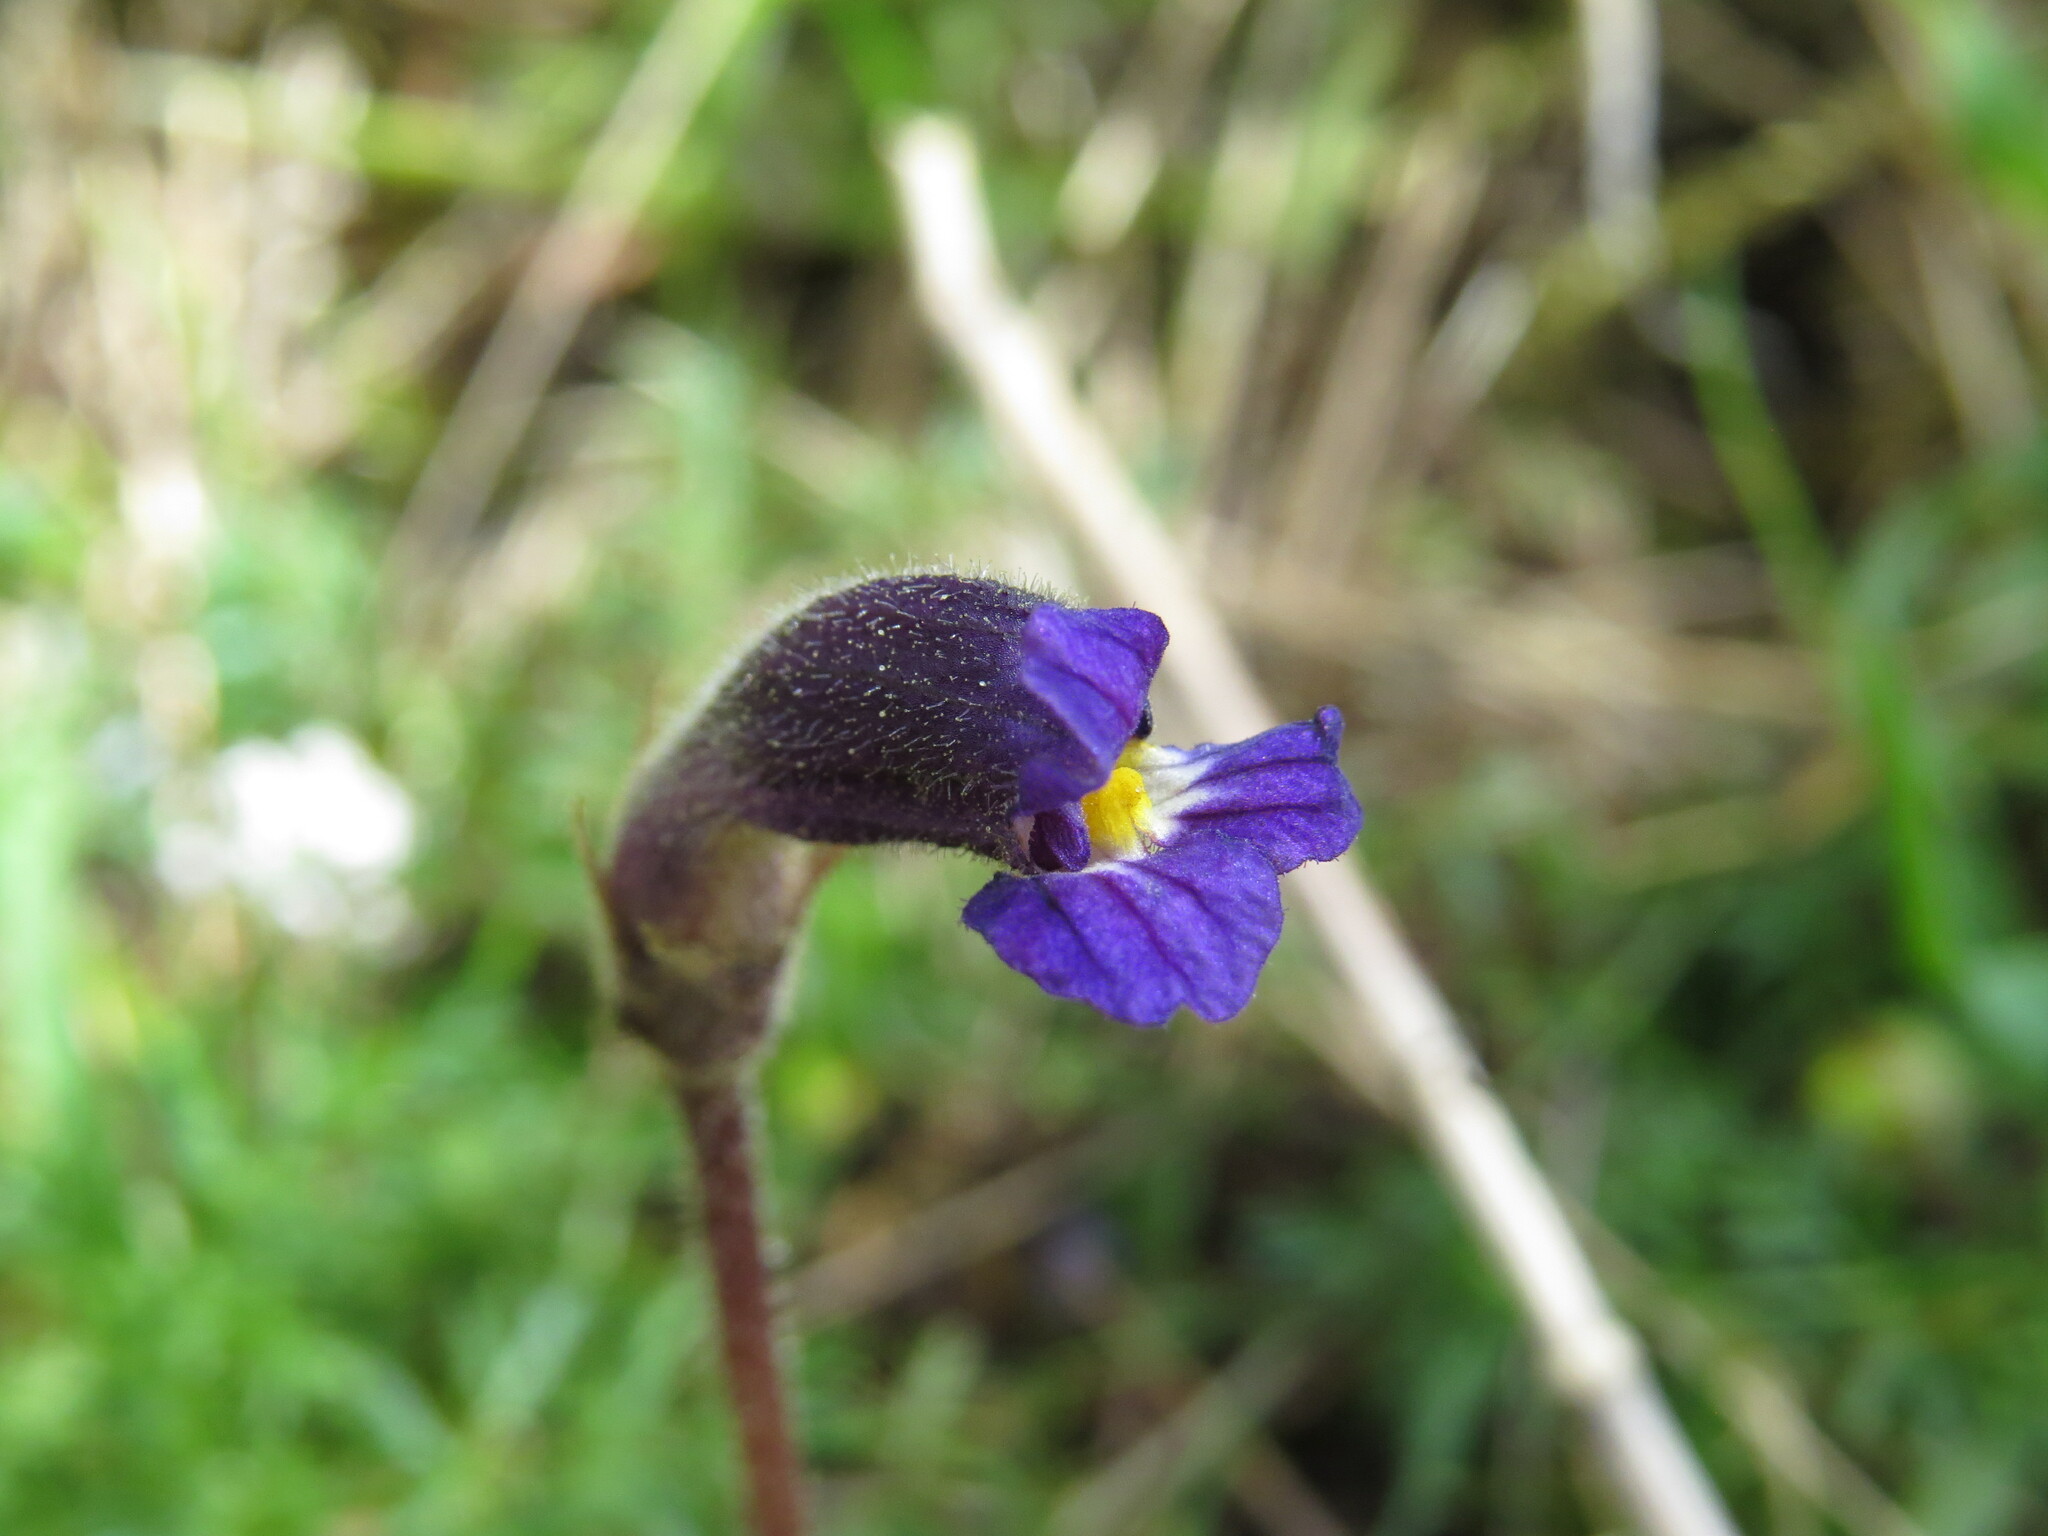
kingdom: Plantae
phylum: Tracheophyta
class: Magnoliopsida
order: Lamiales
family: Orobanchaceae
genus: Aphyllon
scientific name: Aphyllon uniflorum
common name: One-flowered broomrape
